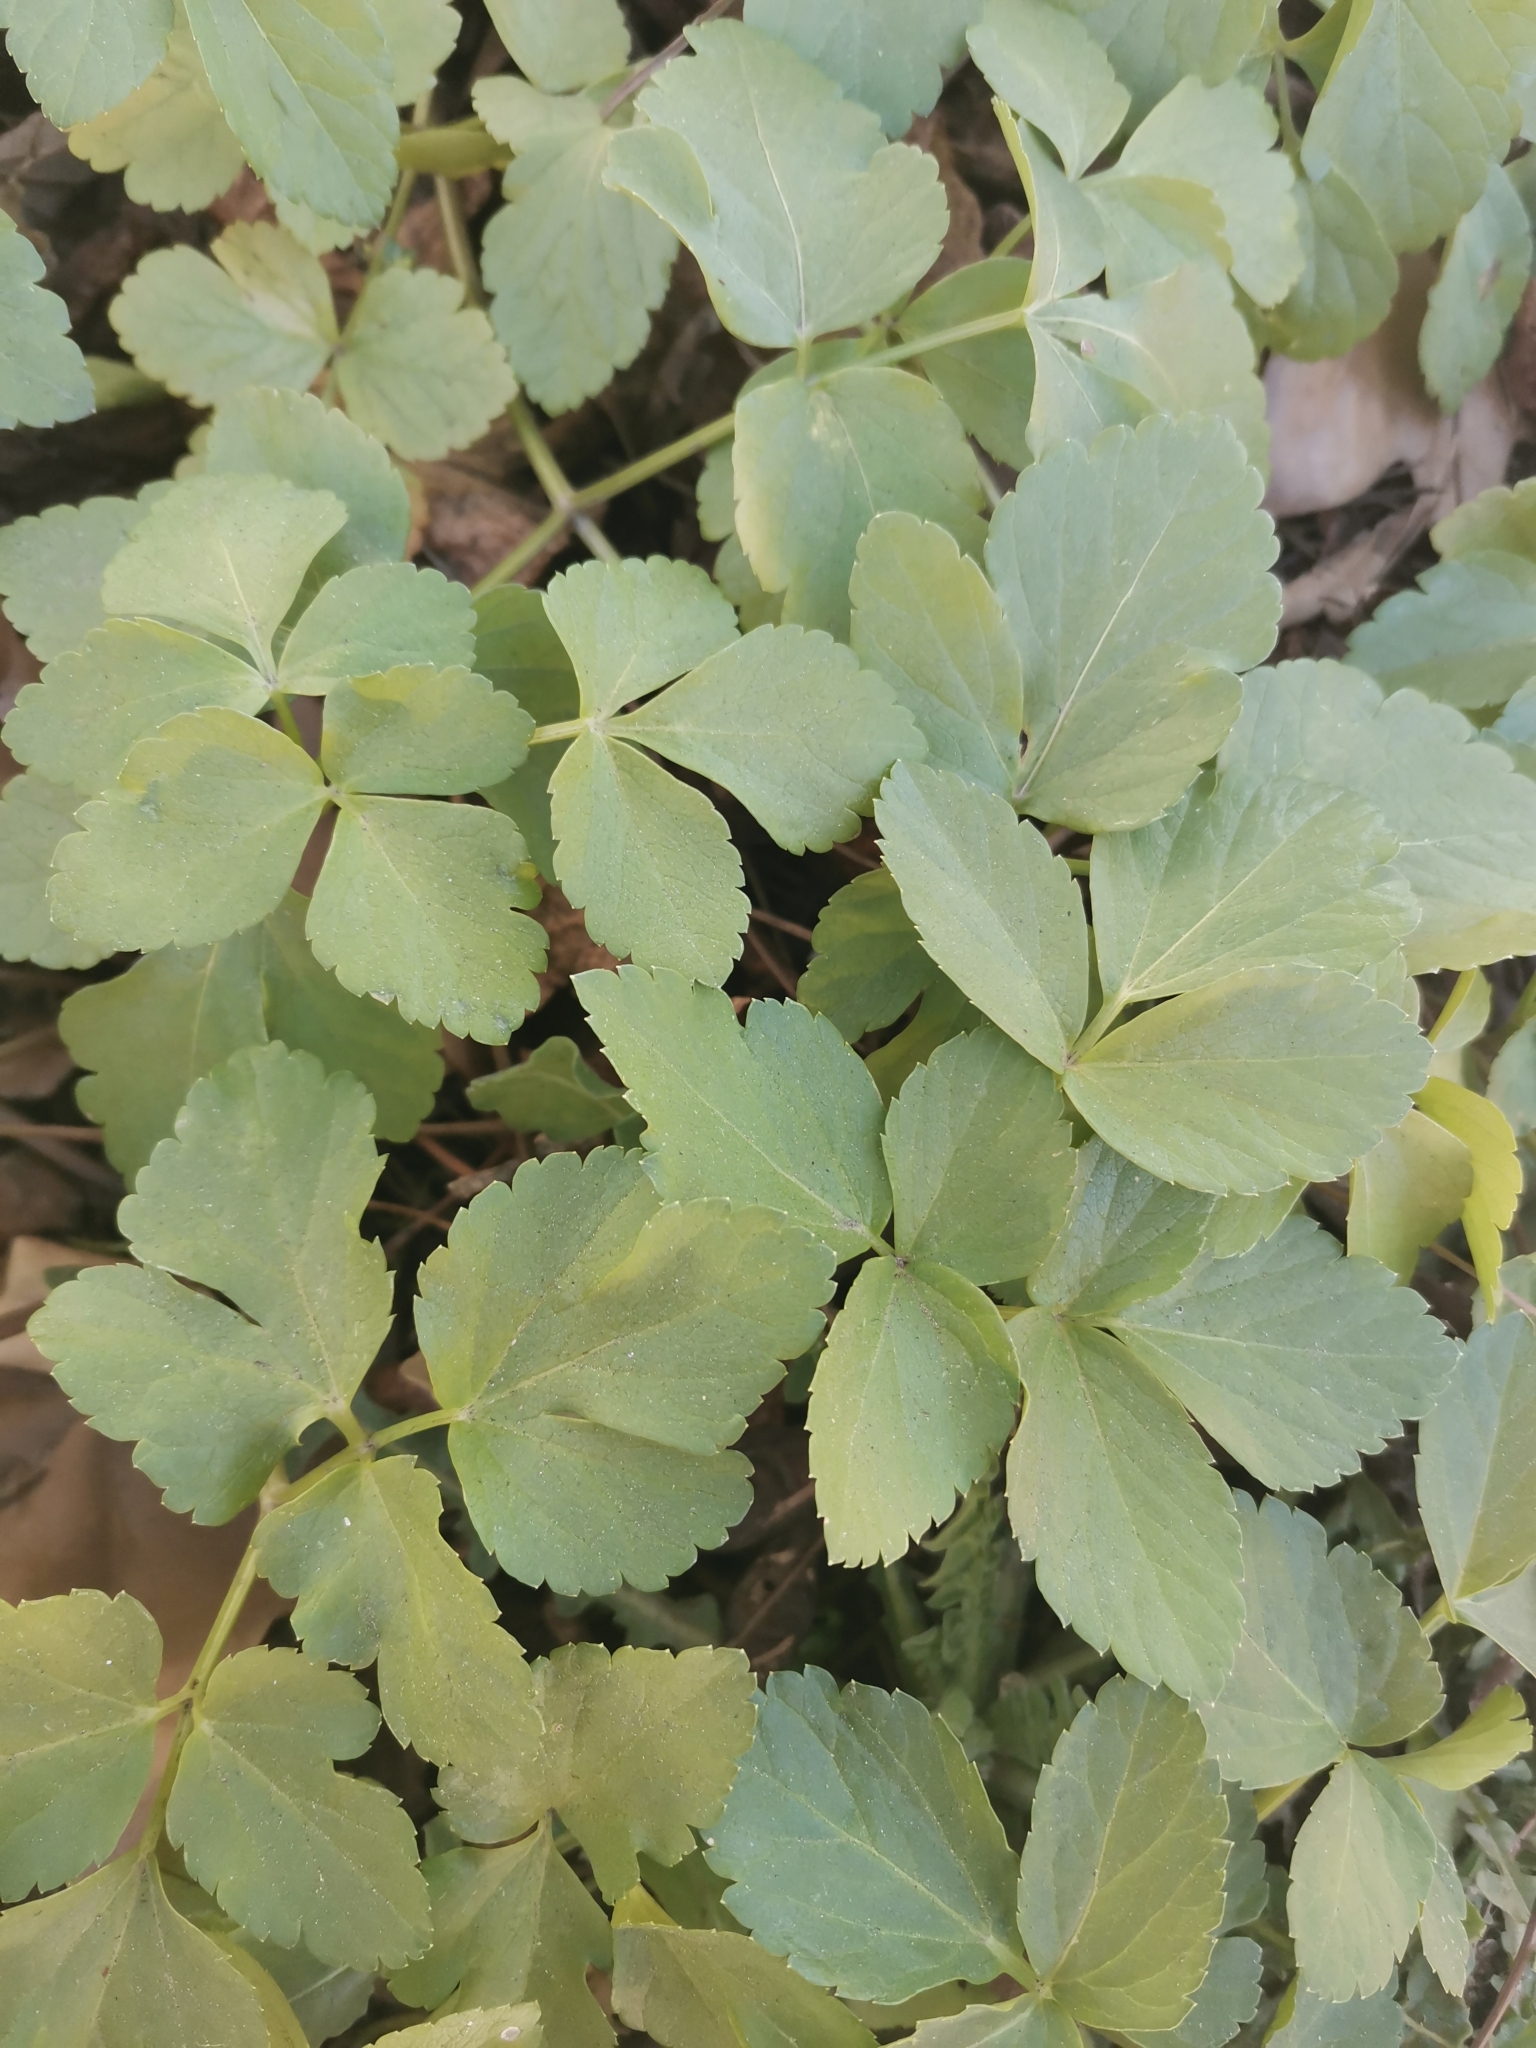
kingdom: Plantae
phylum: Tracheophyta
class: Magnoliopsida
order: Apiales
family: Apiaceae
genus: Smyrnium
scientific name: Smyrnium olusatrum
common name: Alexanders
